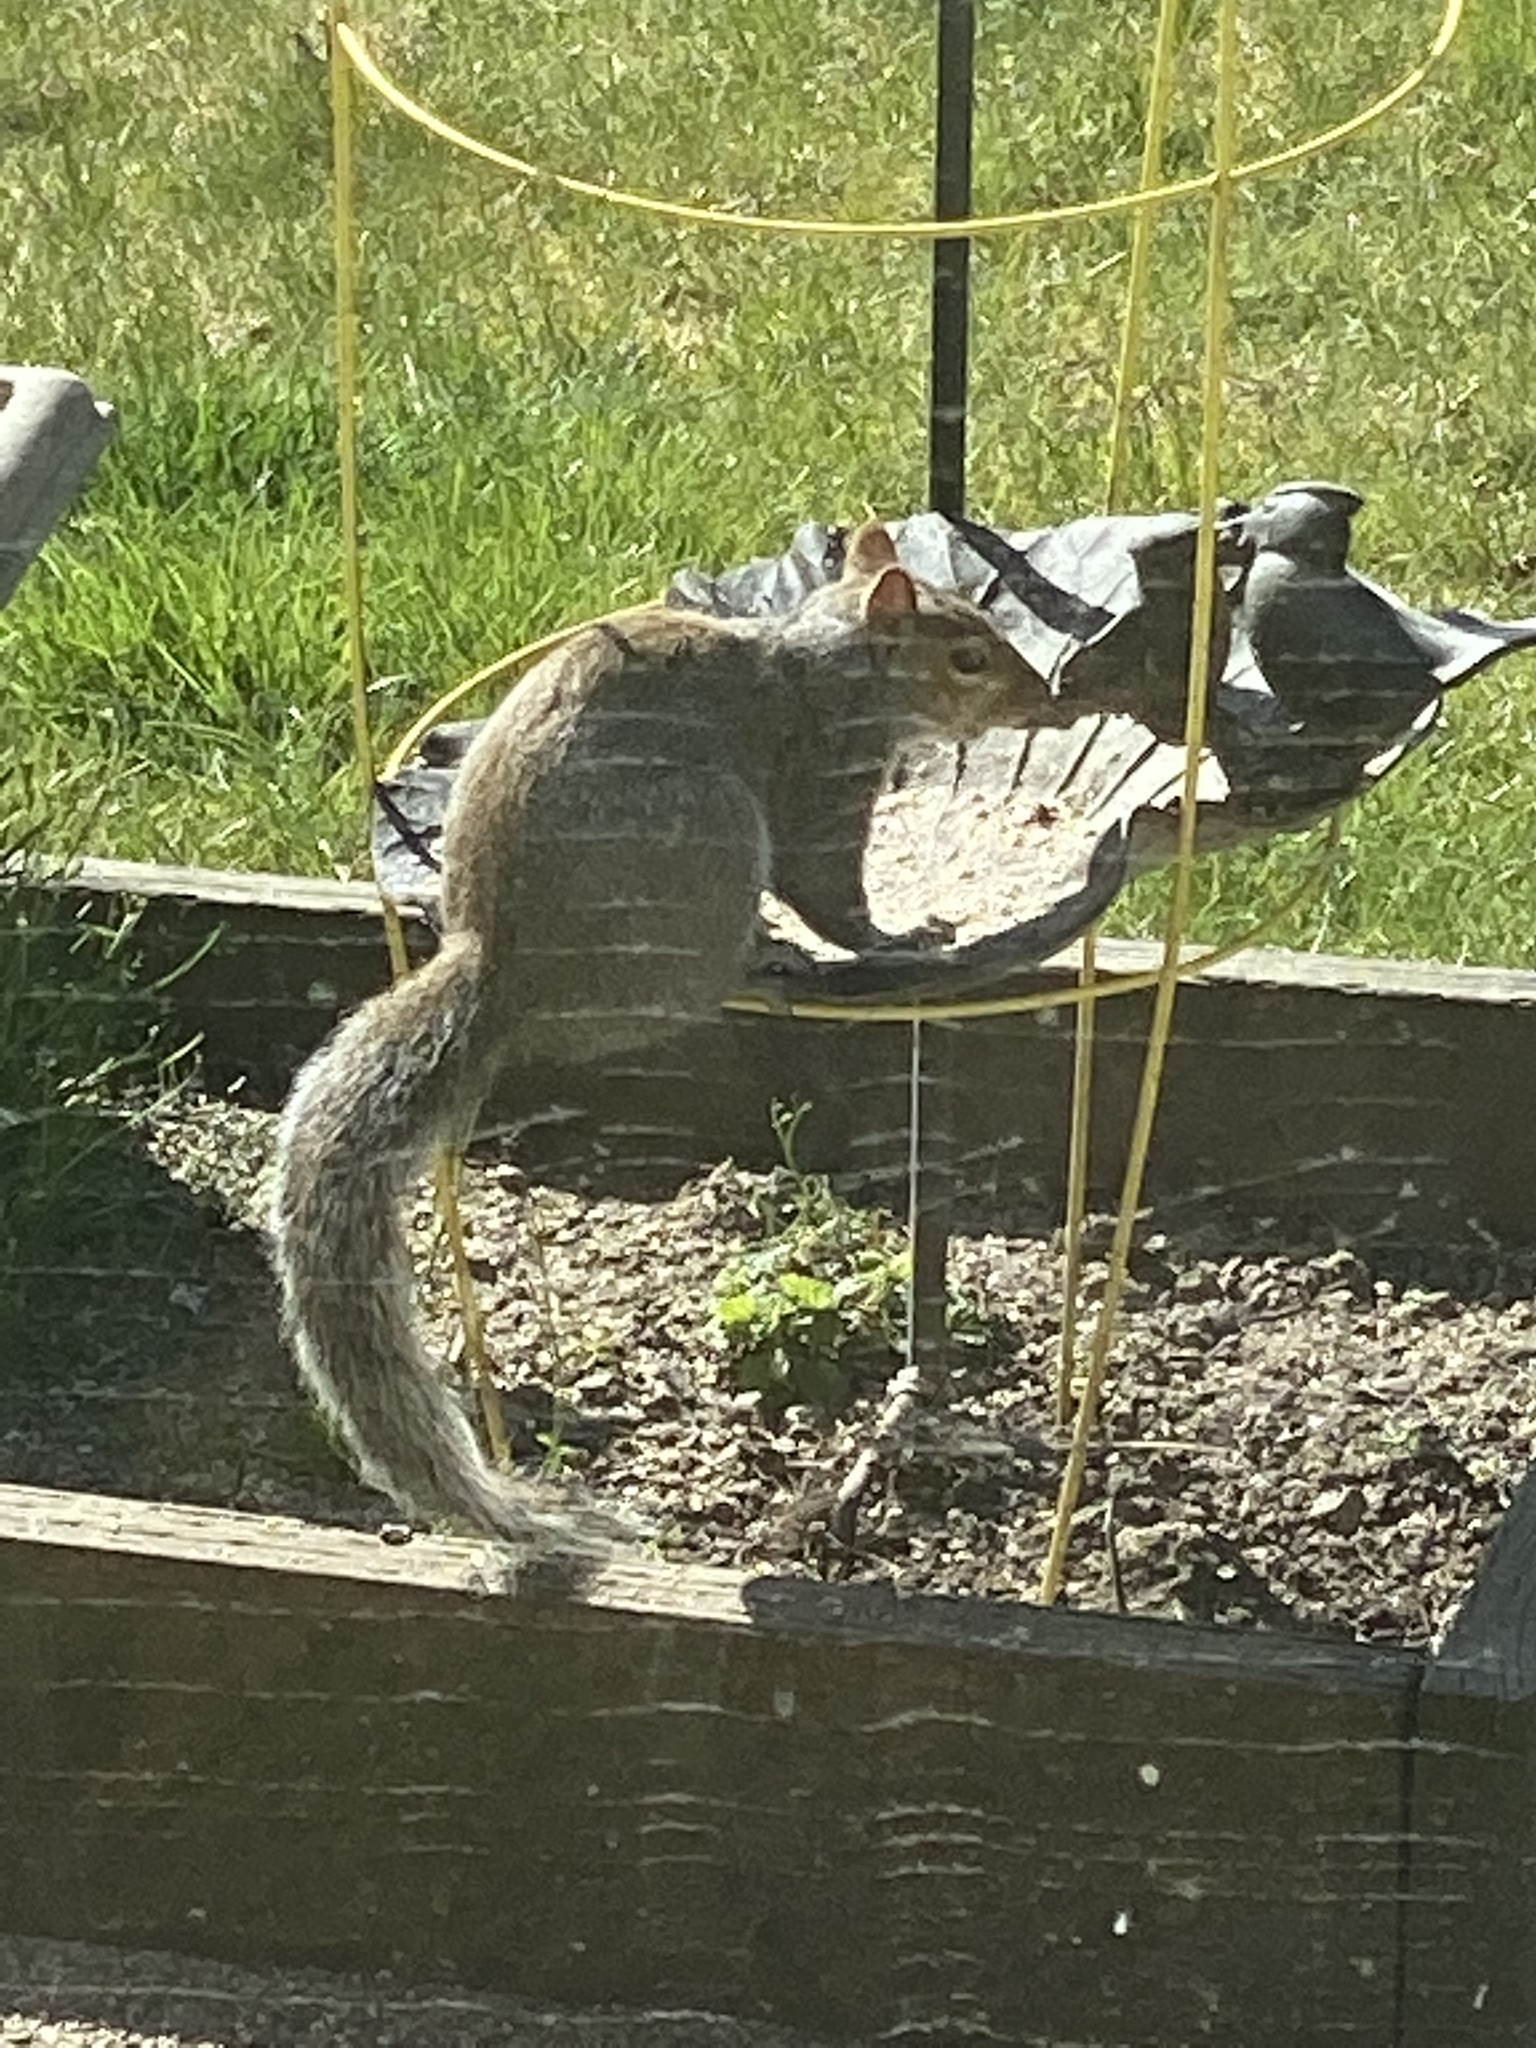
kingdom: Animalia
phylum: Chordata
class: Mammalia
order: Rodentia
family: Sciuridae
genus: Sciurus
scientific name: Sciurus carolinensis
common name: Eastern gray squirrel
